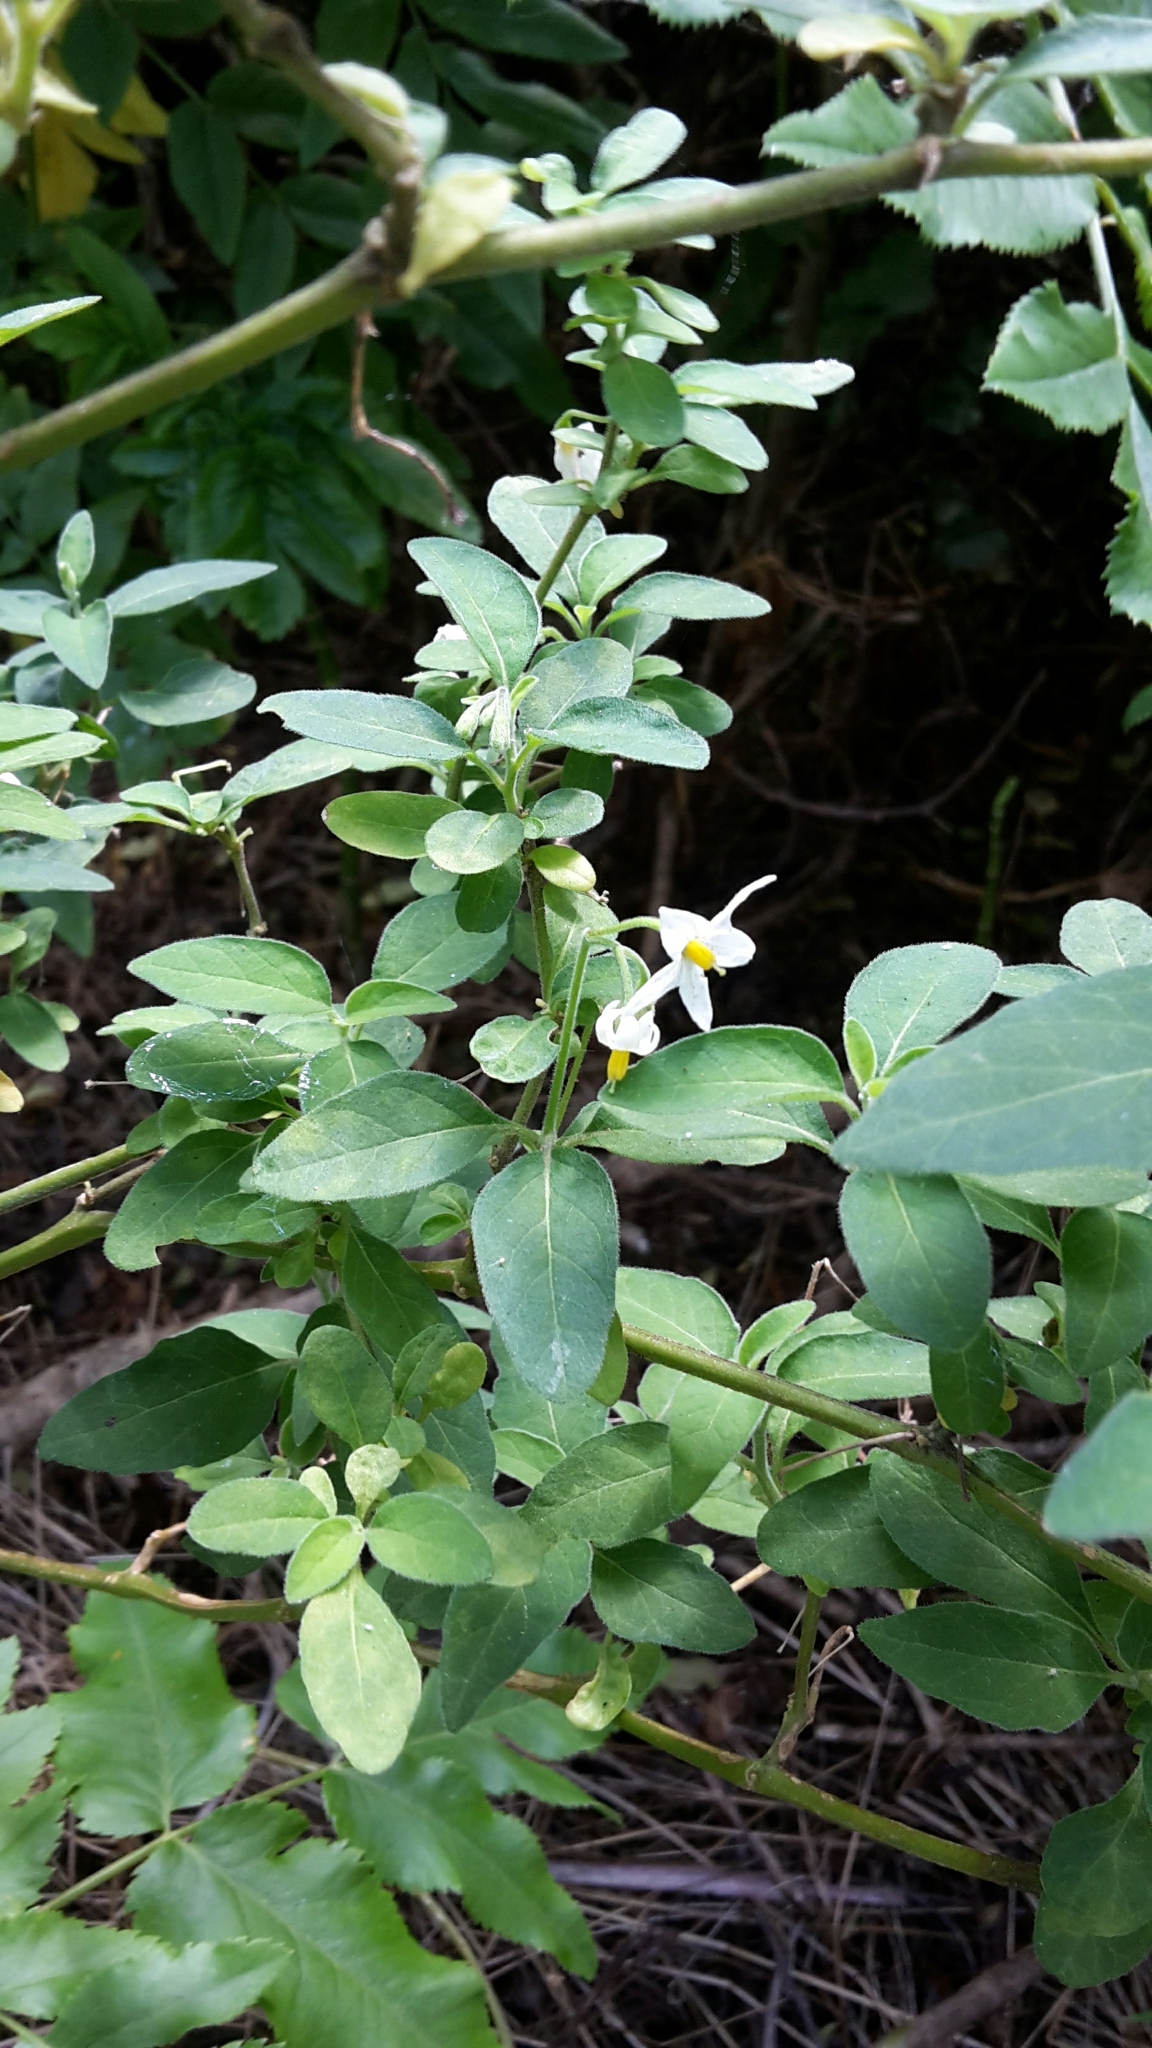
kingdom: Plantae
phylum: Tracheophyta
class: Magnoliopsida
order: Solanales
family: Solanaceae
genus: Solanum
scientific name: Solanum chenopodioides
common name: Tall nightshade
